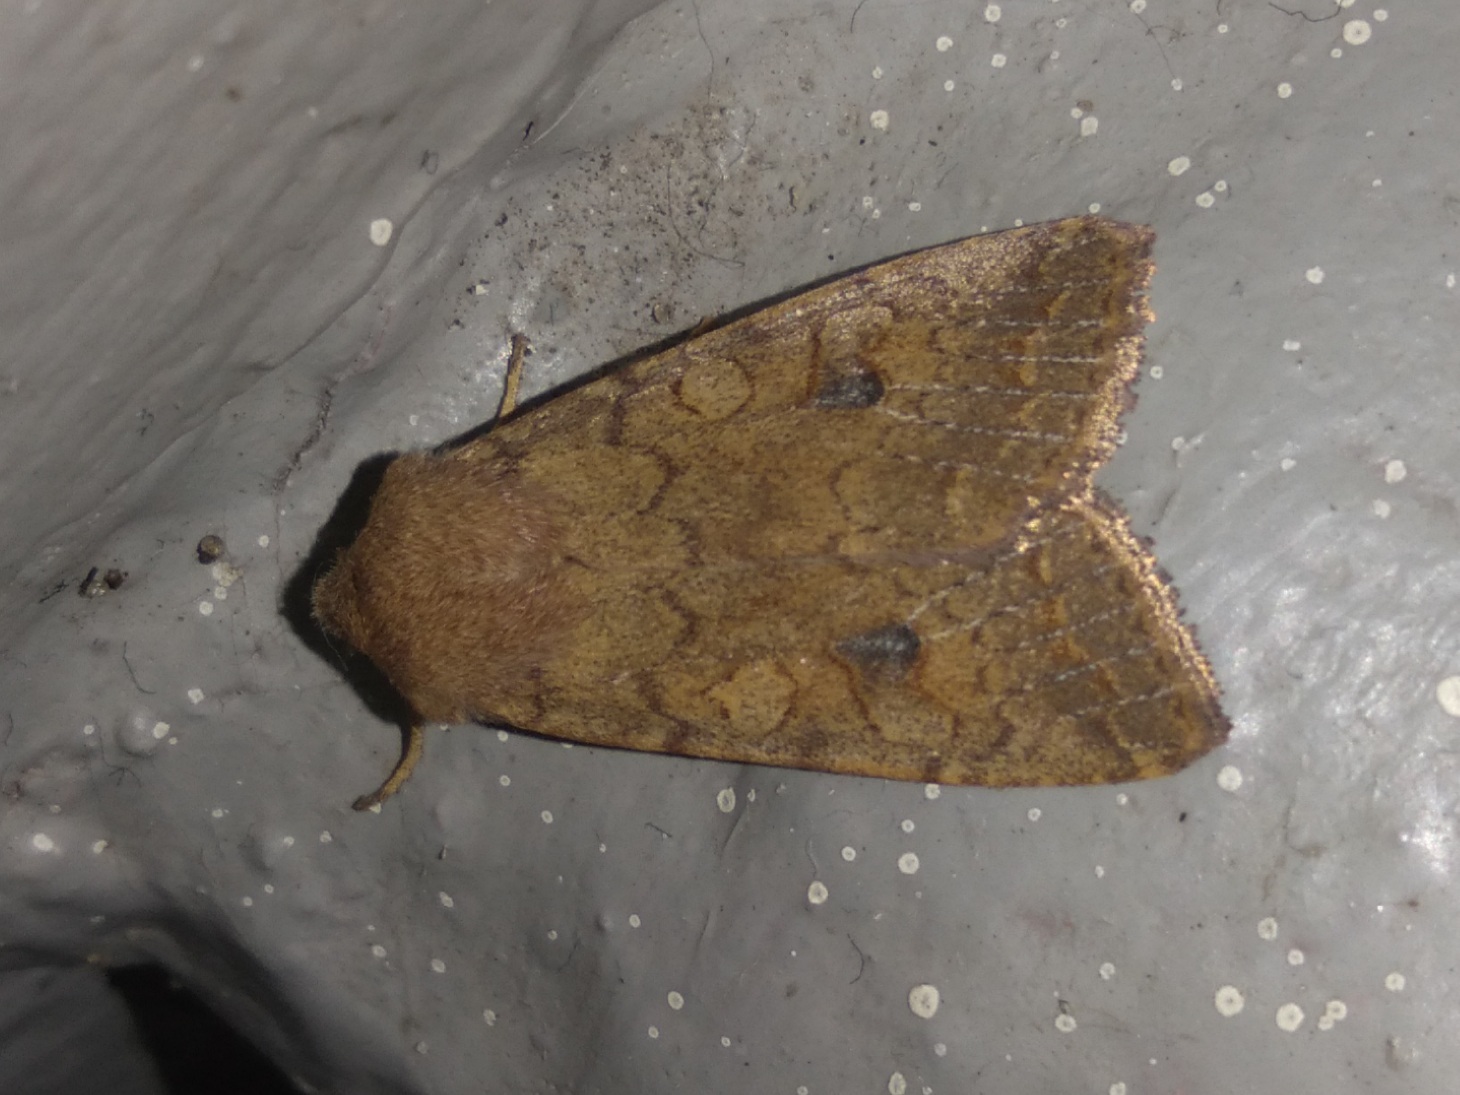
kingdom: Animalia
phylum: Arthropoda
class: Insecta
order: Lepidoptera
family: Noctuidae
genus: Sunira
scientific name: Sunira circellaris
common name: Brick
